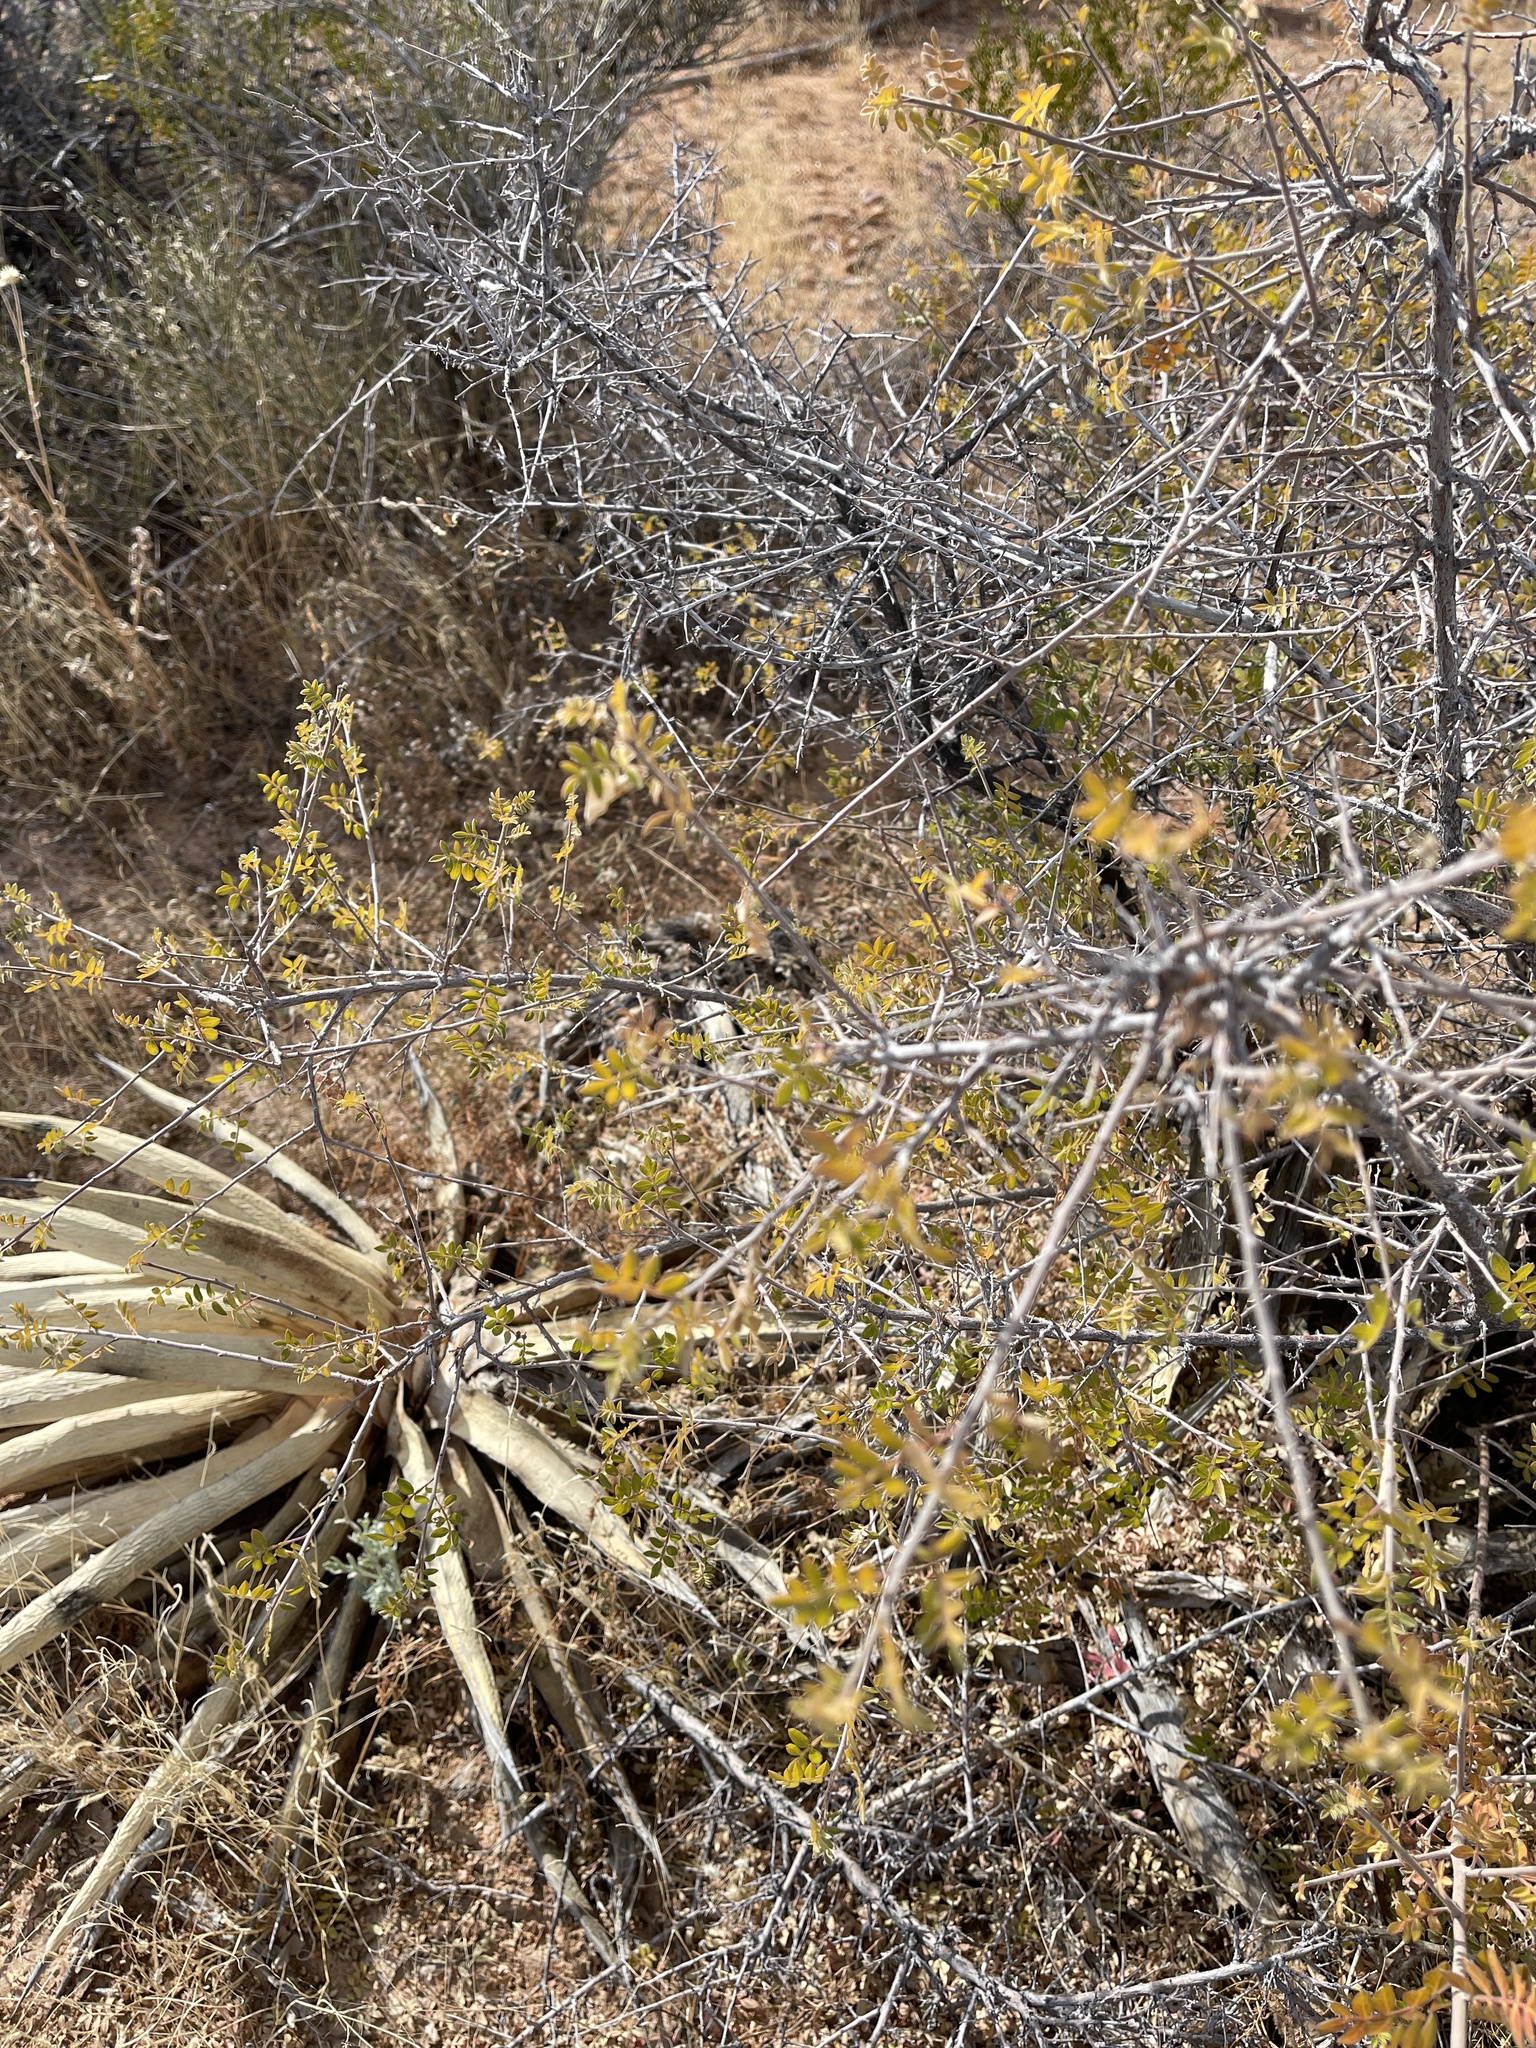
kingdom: Plantae
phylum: Tracheophyta
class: Magnoliopsida
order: Sapindales
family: Anacardiaceae
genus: Rhus
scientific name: Rhus microphylla
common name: Desert sumac
